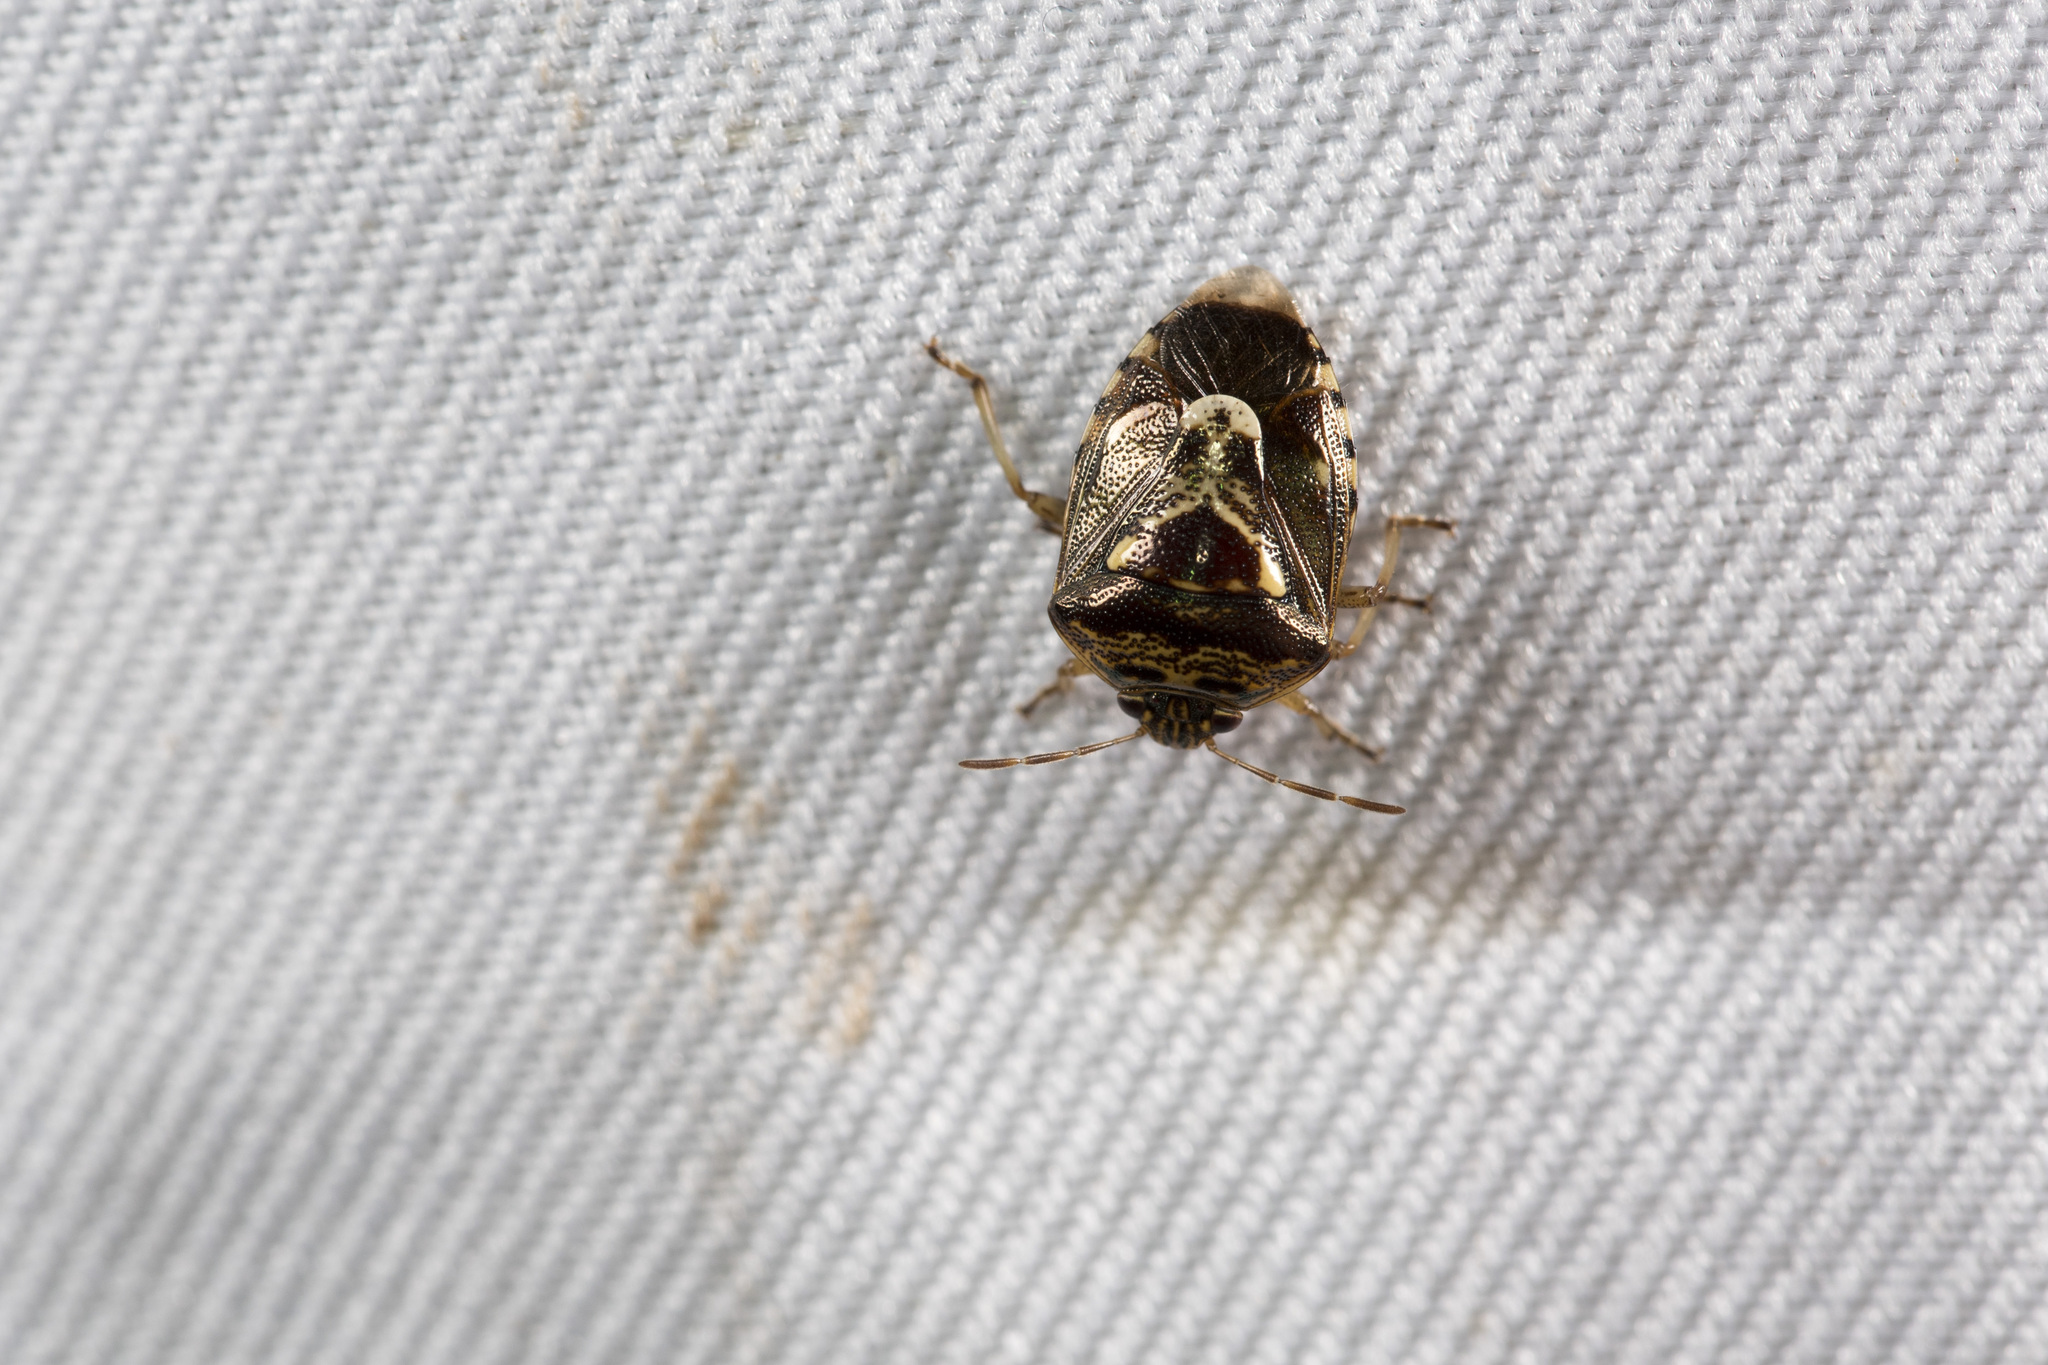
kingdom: Animalia
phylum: Arthropoda
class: Insecta
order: Hemiptera
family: Pentatomidae
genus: Menida
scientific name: Menida formosa
